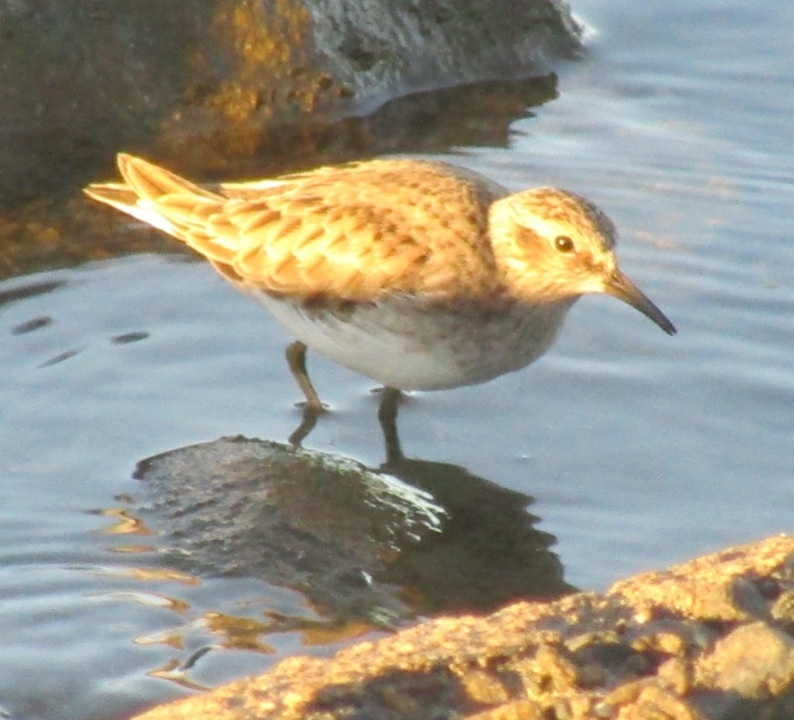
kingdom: Animalia
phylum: Chordata
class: Aves
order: Charadriiformes
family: Scolopacidae
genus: Calidris
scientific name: Calidris minutilla
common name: Least sandpiper
